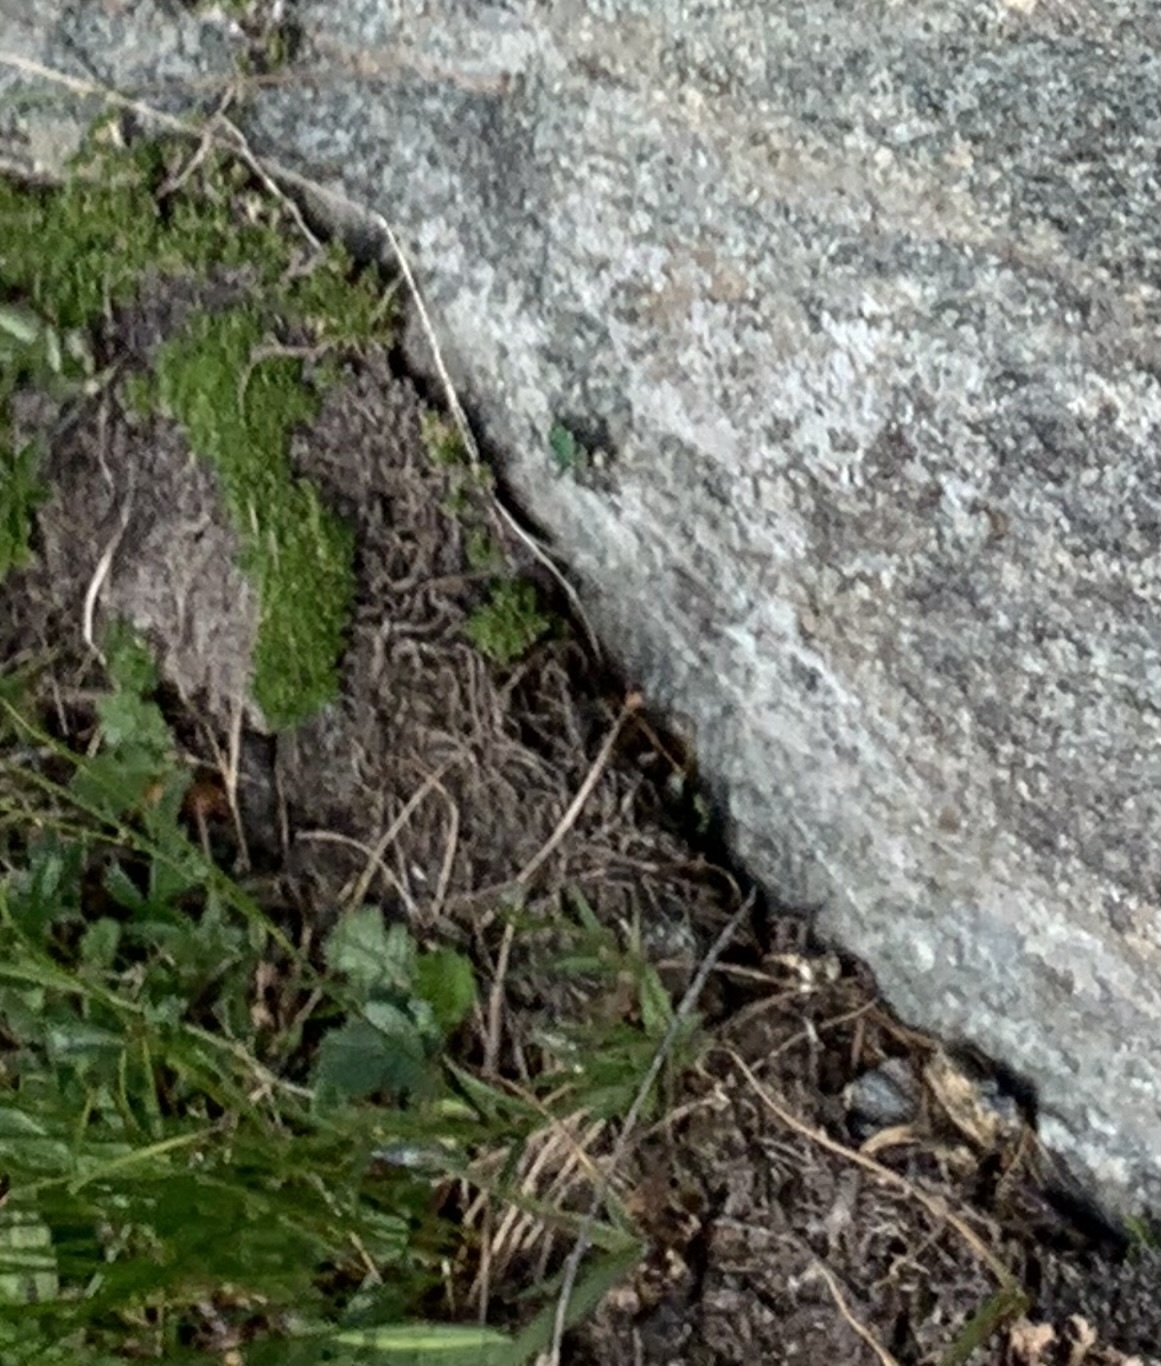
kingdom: Animalia
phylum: Arthropoda
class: Insecta
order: Coleoptera
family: Carabidae
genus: Cicindela
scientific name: Cicindela gallica
